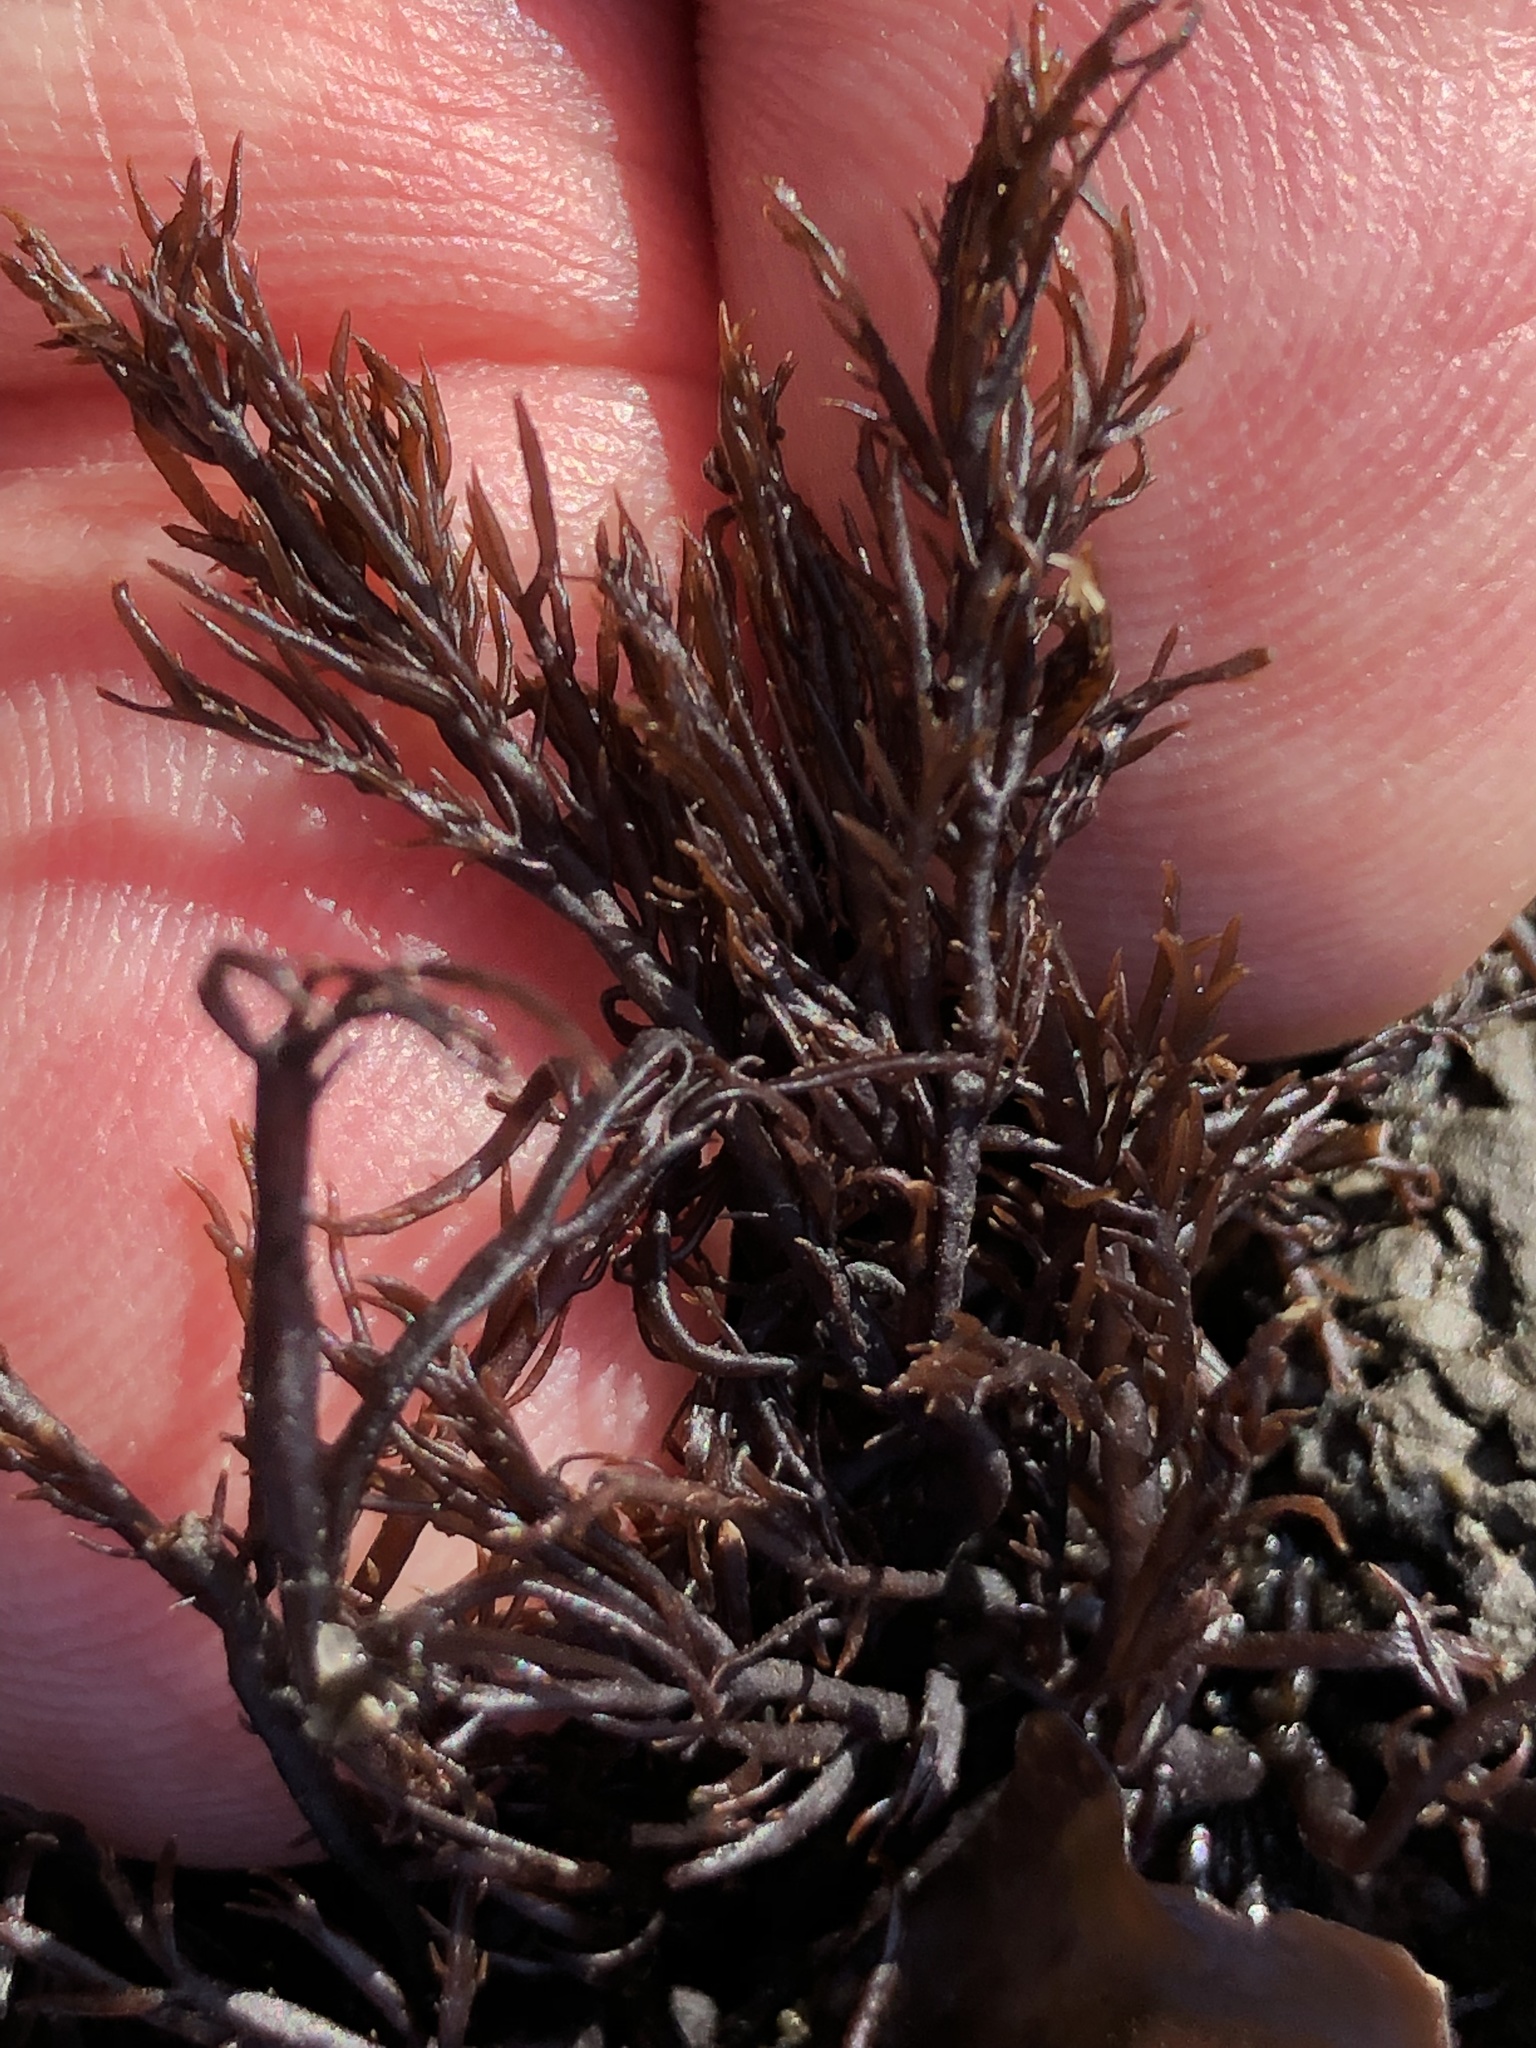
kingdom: Plantae
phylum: Rhodophyta
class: Florideophyceae
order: Gigartinales
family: Dumontiaceae
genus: Cryptosiphonia
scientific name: Cryptosiphonia woodii
